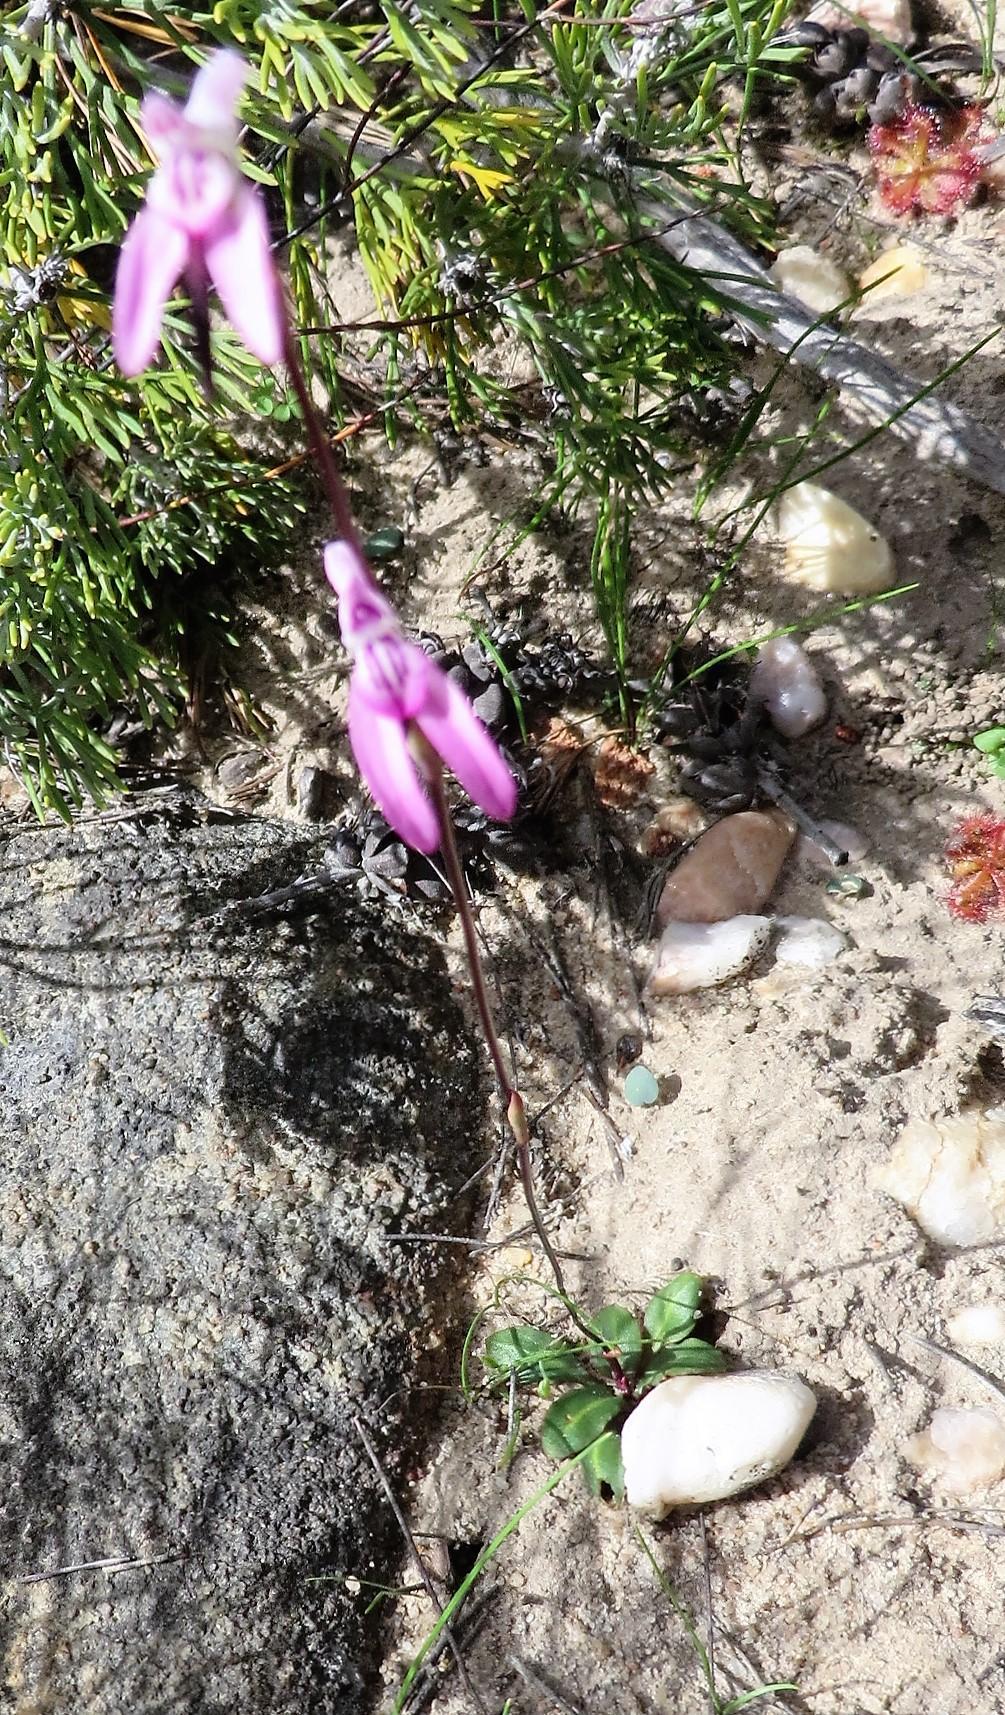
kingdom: Plantae
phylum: Tracheophyta
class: Liliopsida
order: Asparagales
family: Orchidaceae
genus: Disa
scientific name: Disa inflexa
